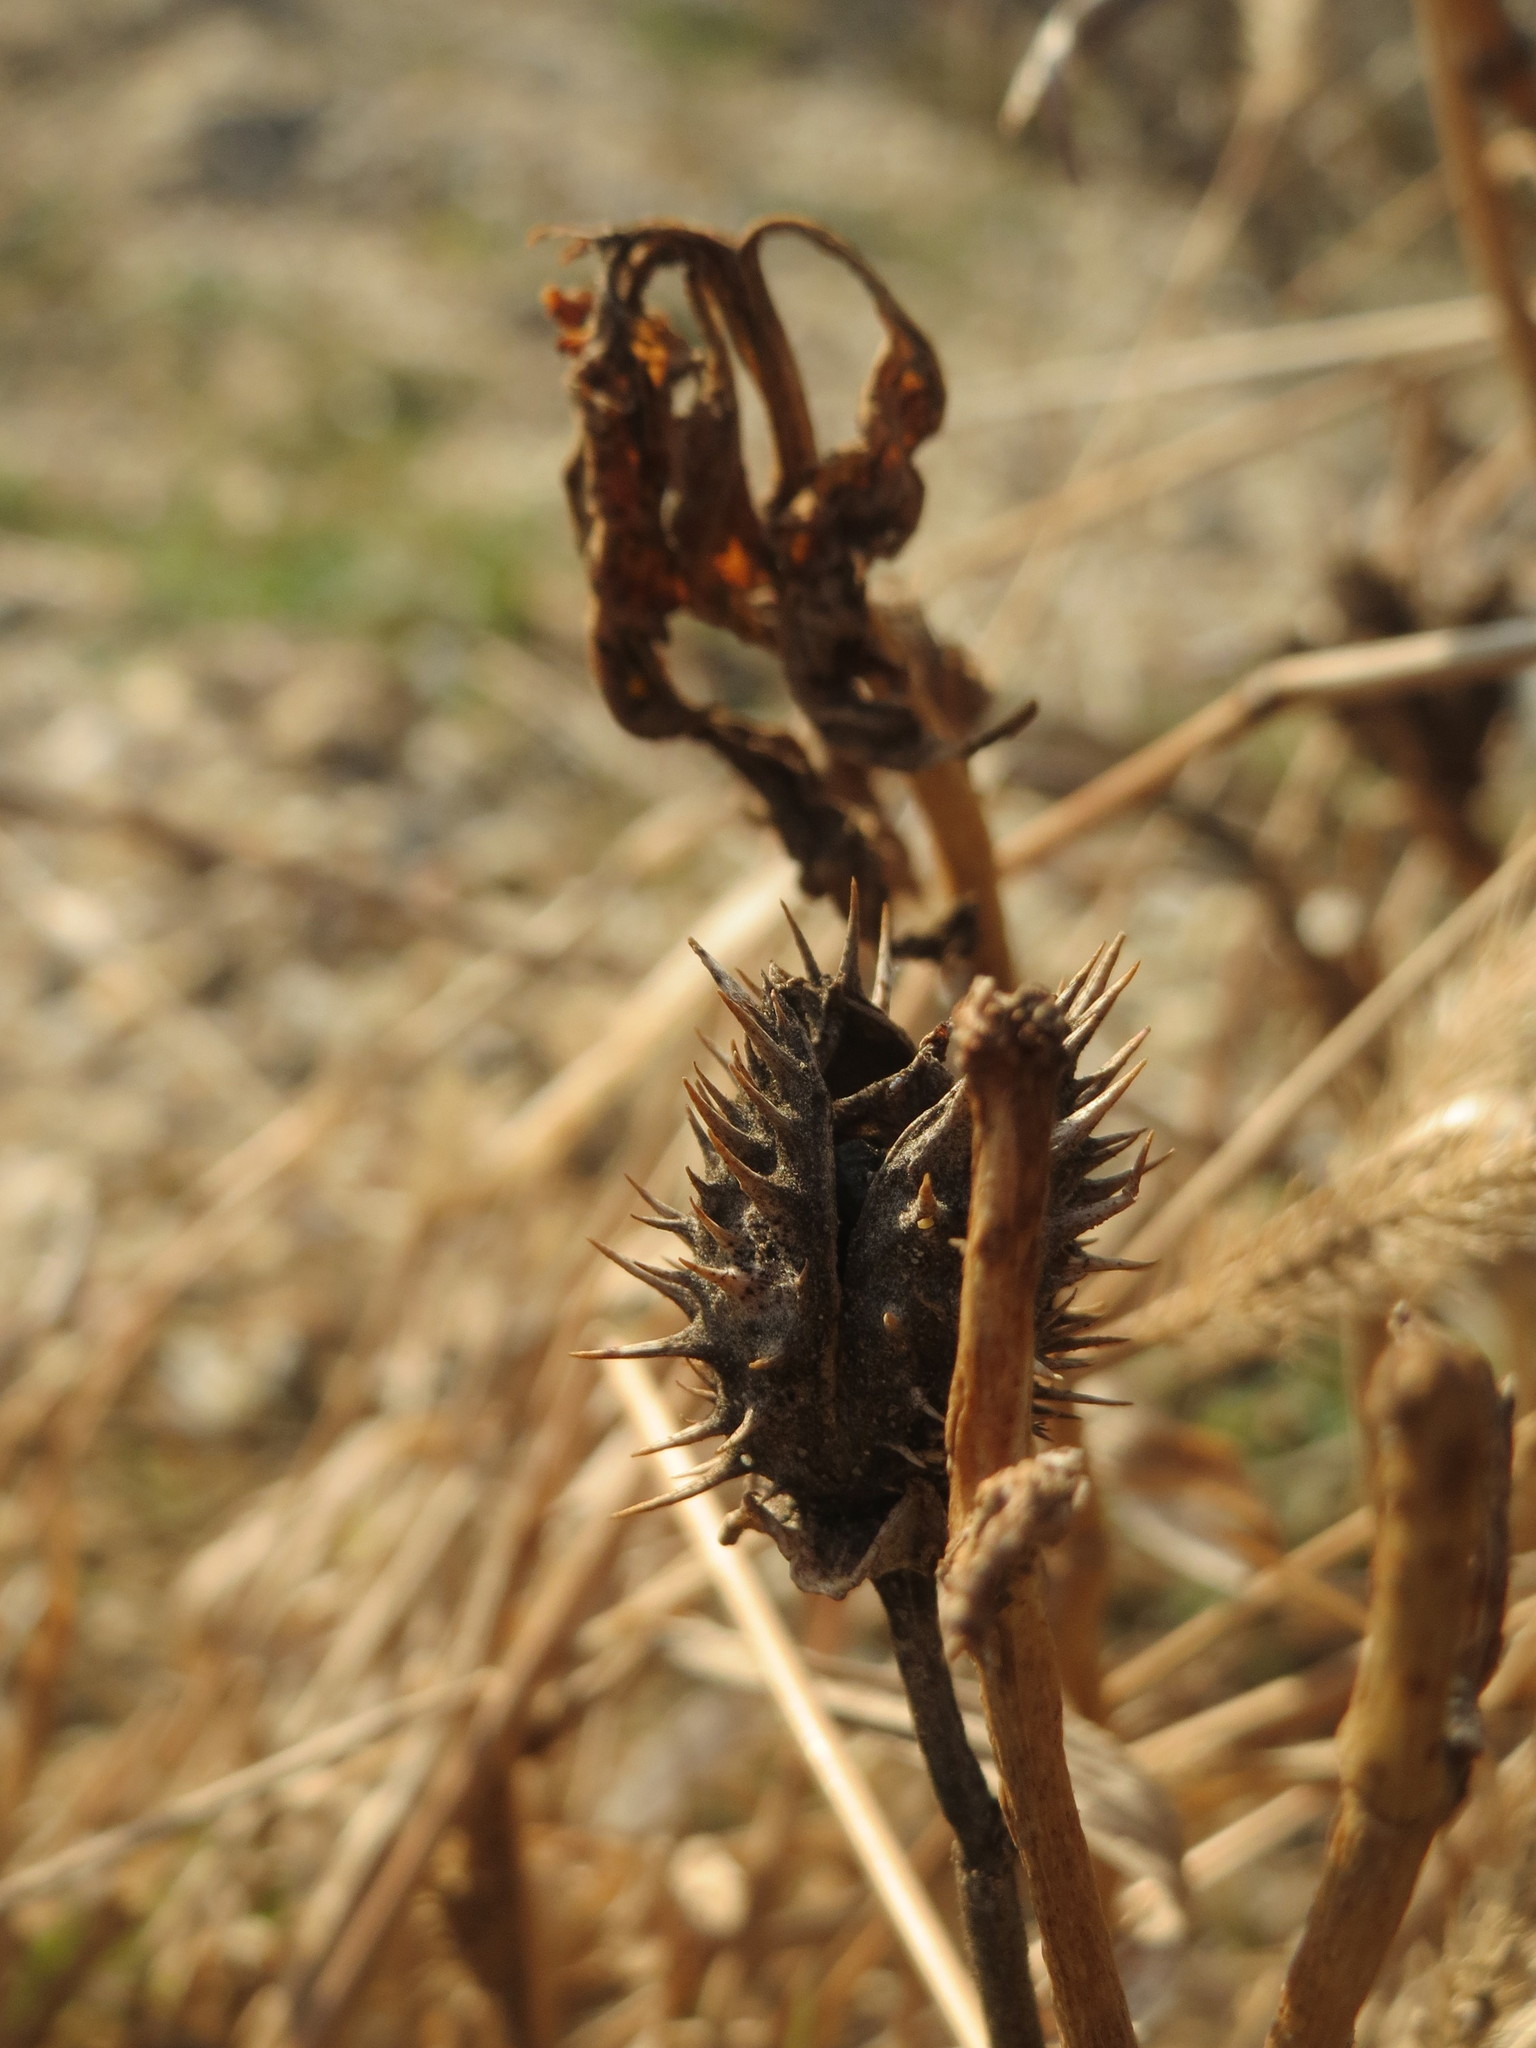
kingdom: Plantae
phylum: Tracheophyta
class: Magnoliopsida
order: Solanales
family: Solanaceae
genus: Datura
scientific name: Datura stramonium
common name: Thorn-apple
